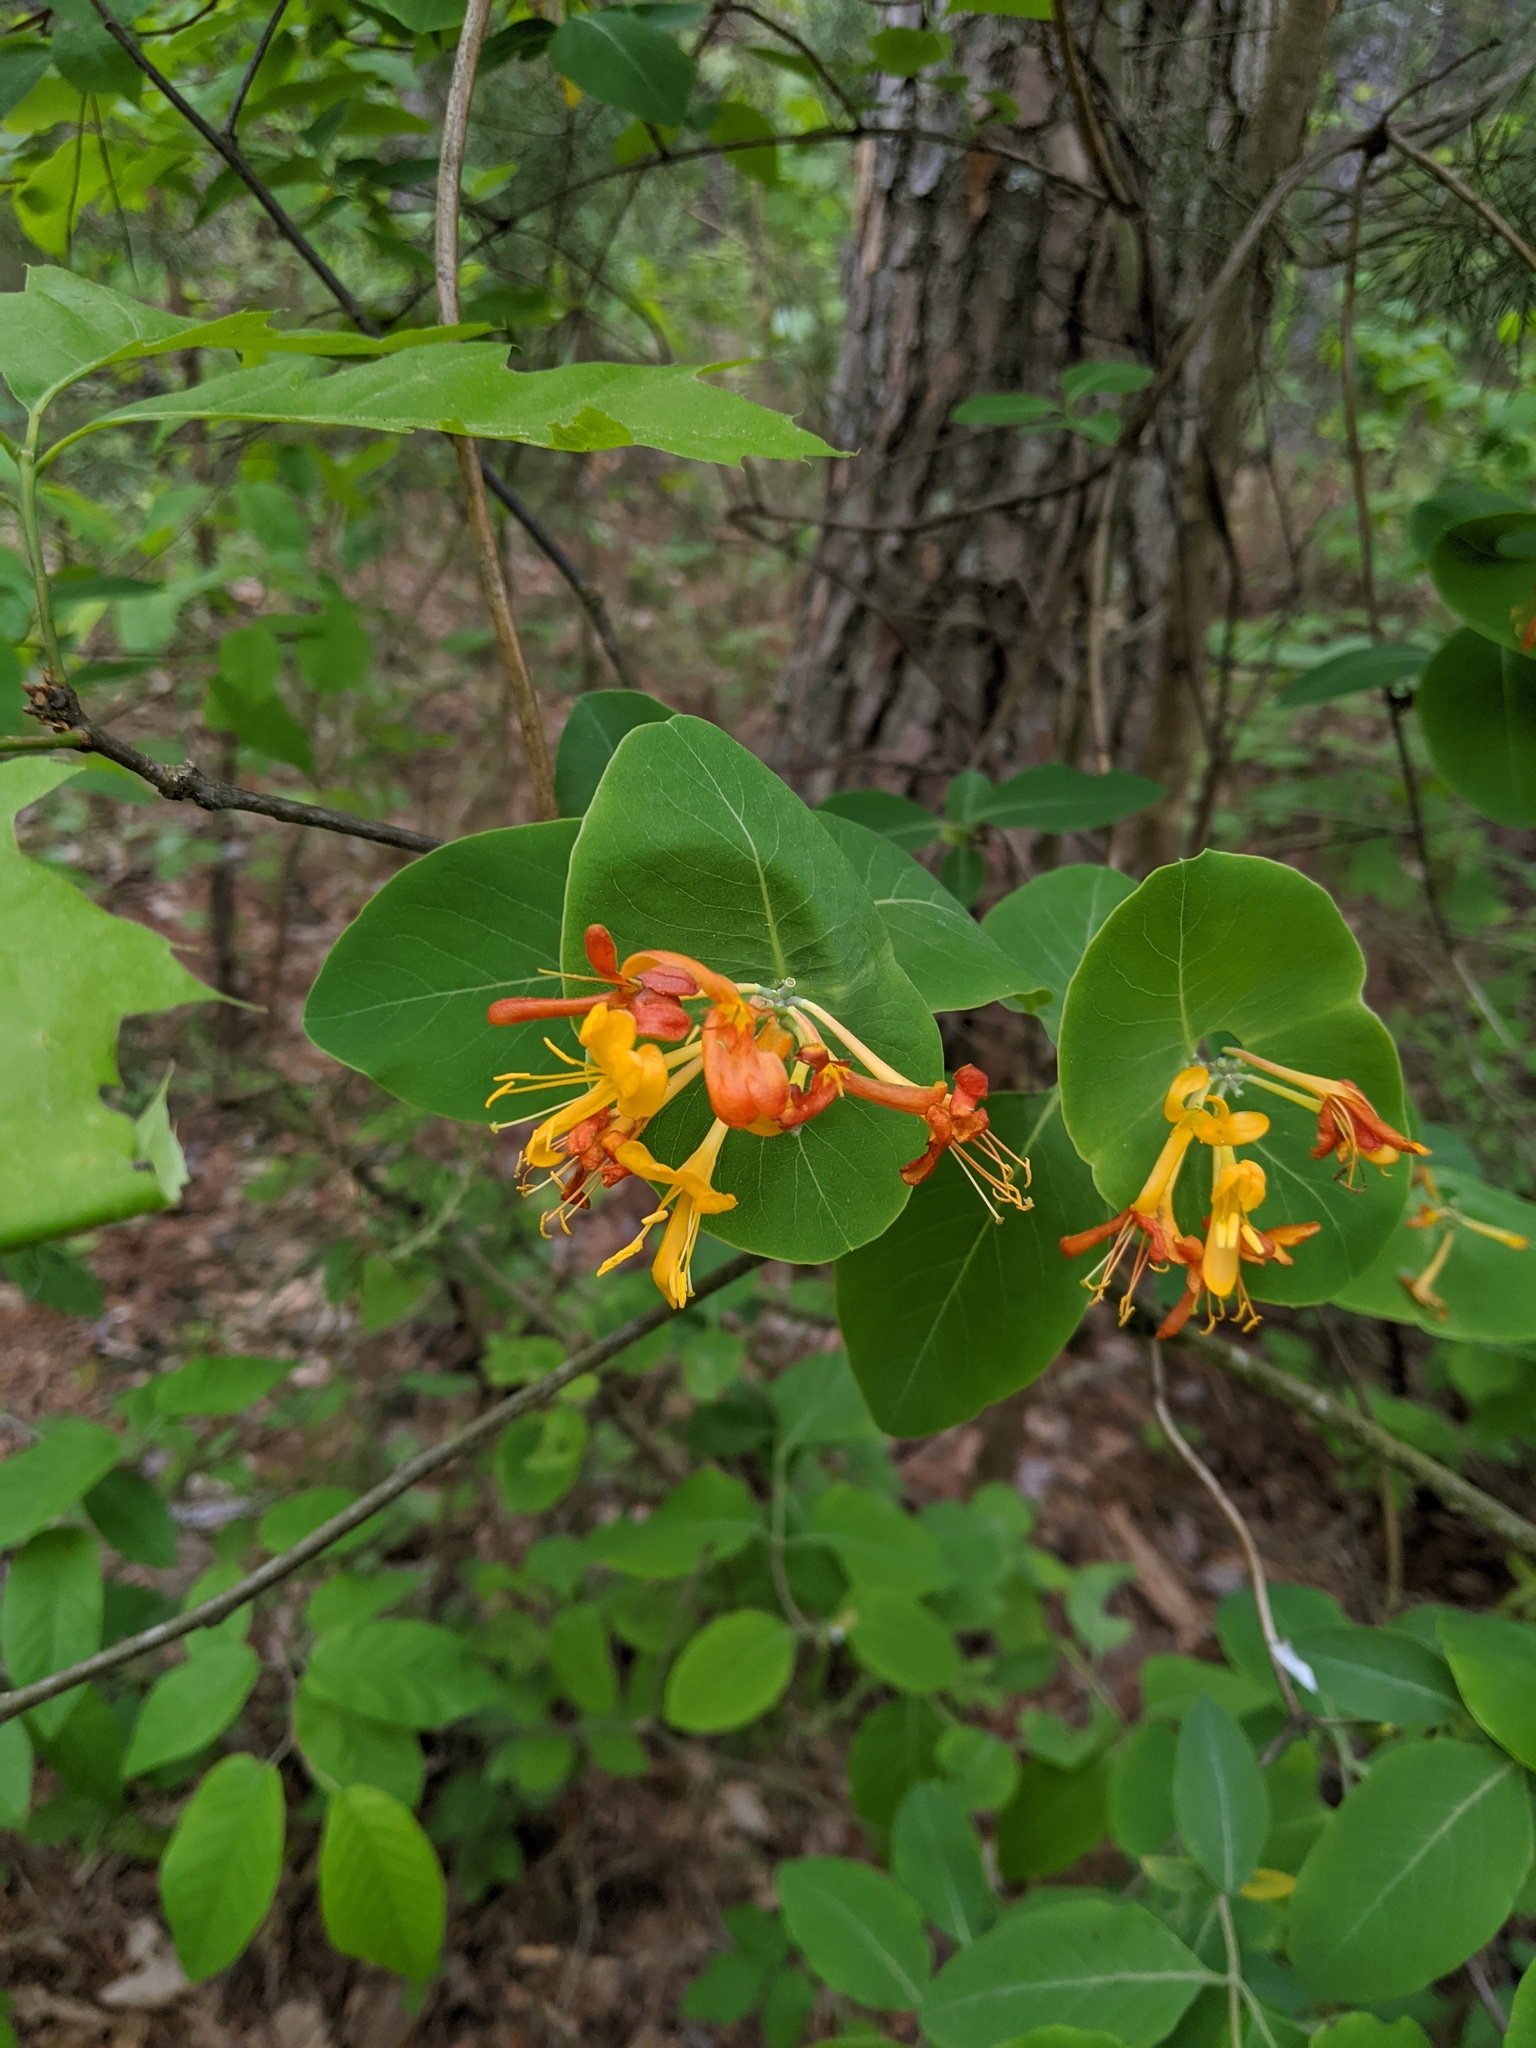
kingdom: Plantae
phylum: Tracheophyta
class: Magnoliopsida
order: Dipsacales
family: Caprifoliaceae
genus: Lonicera
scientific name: Lonicera flava
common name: Yellow honeysuckle
